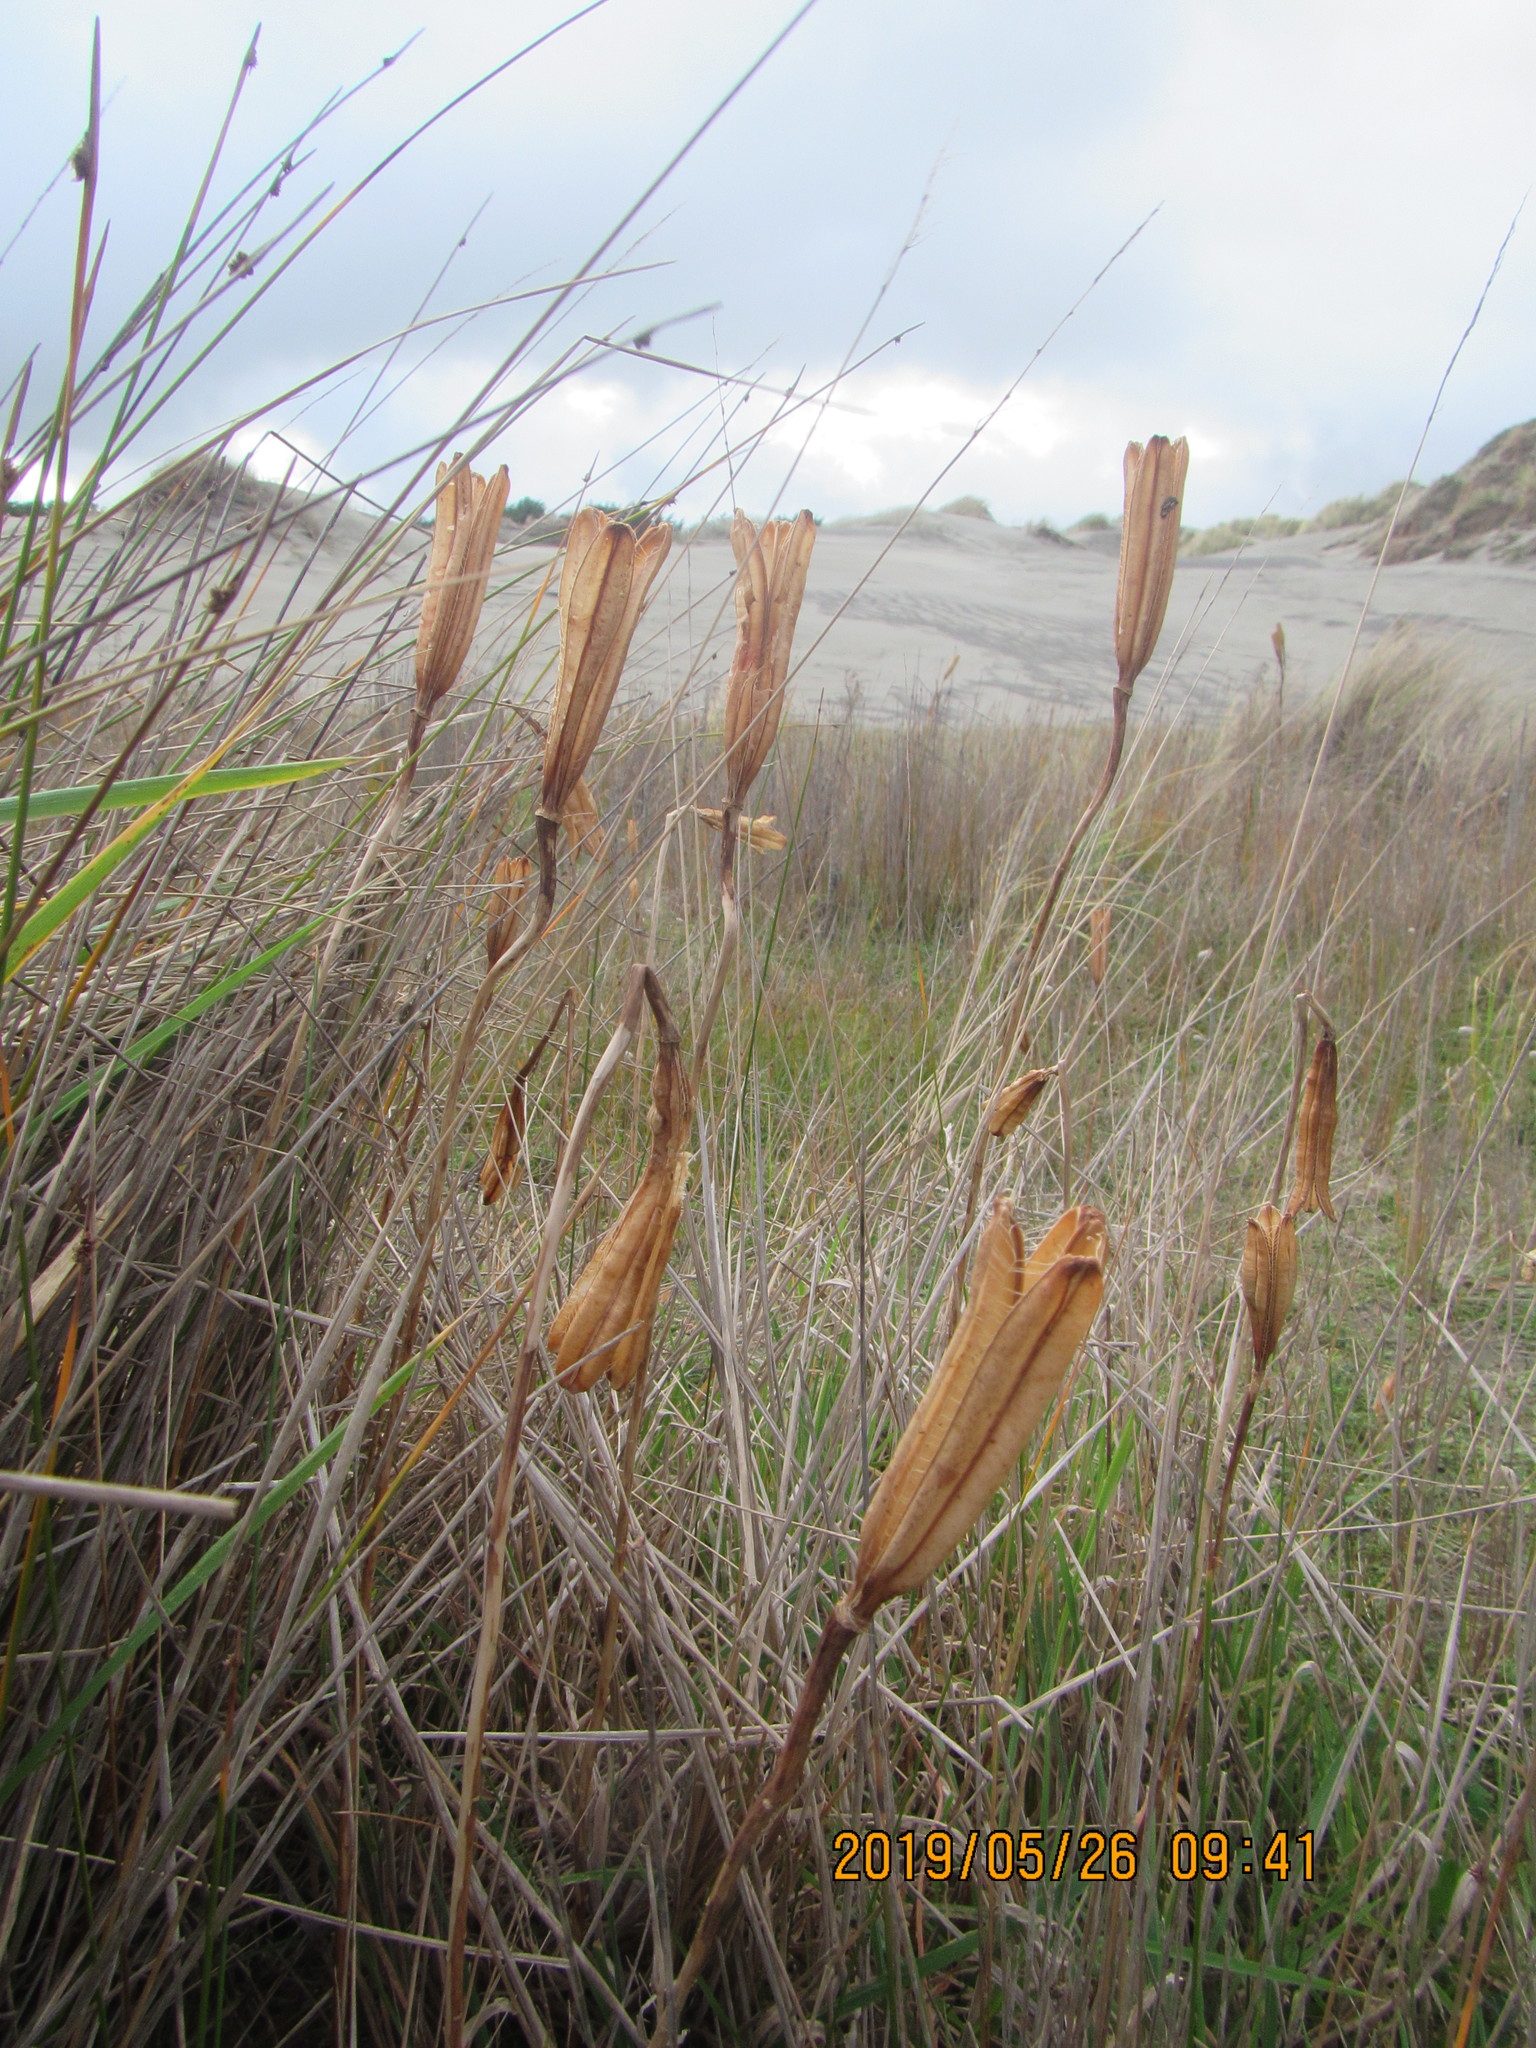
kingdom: Plantae
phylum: Tracheophyta
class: Liliopsida
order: Liliales
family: Liliaceae
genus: Lilium
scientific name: Lilium formosanum
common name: Formosa lily
